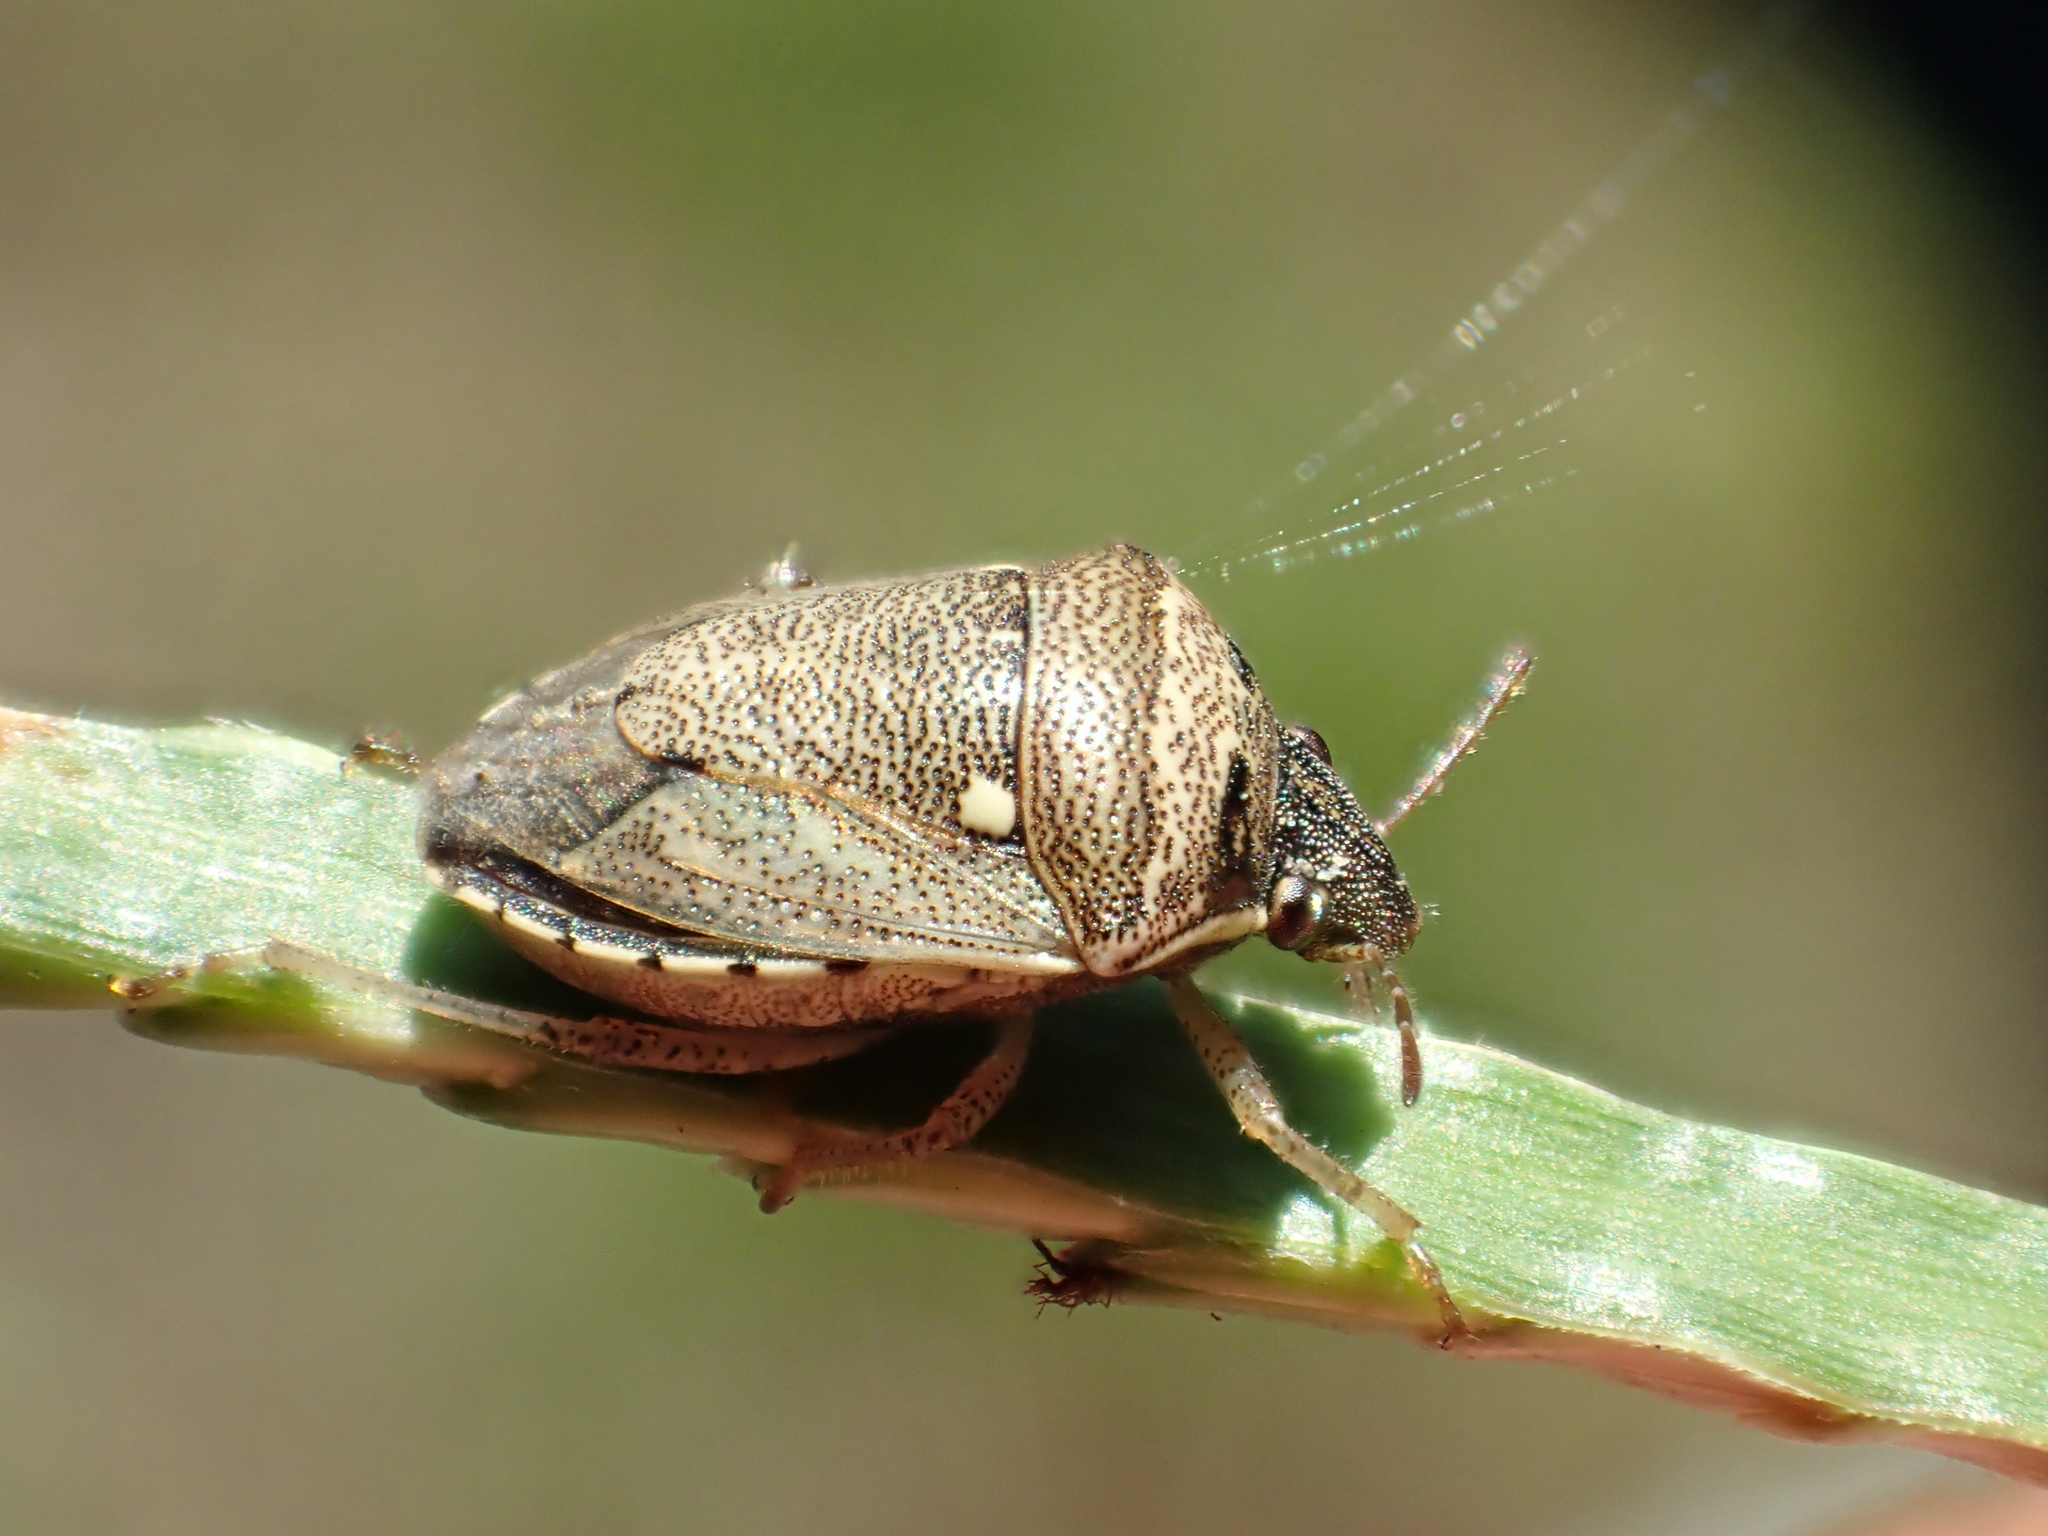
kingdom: Animalia
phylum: Arthropoda
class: Insecta
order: Hemiptera
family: Pentatomidae
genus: Eysarcoris
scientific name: Eysarcoris ventralis
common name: White-spotted stink bug
